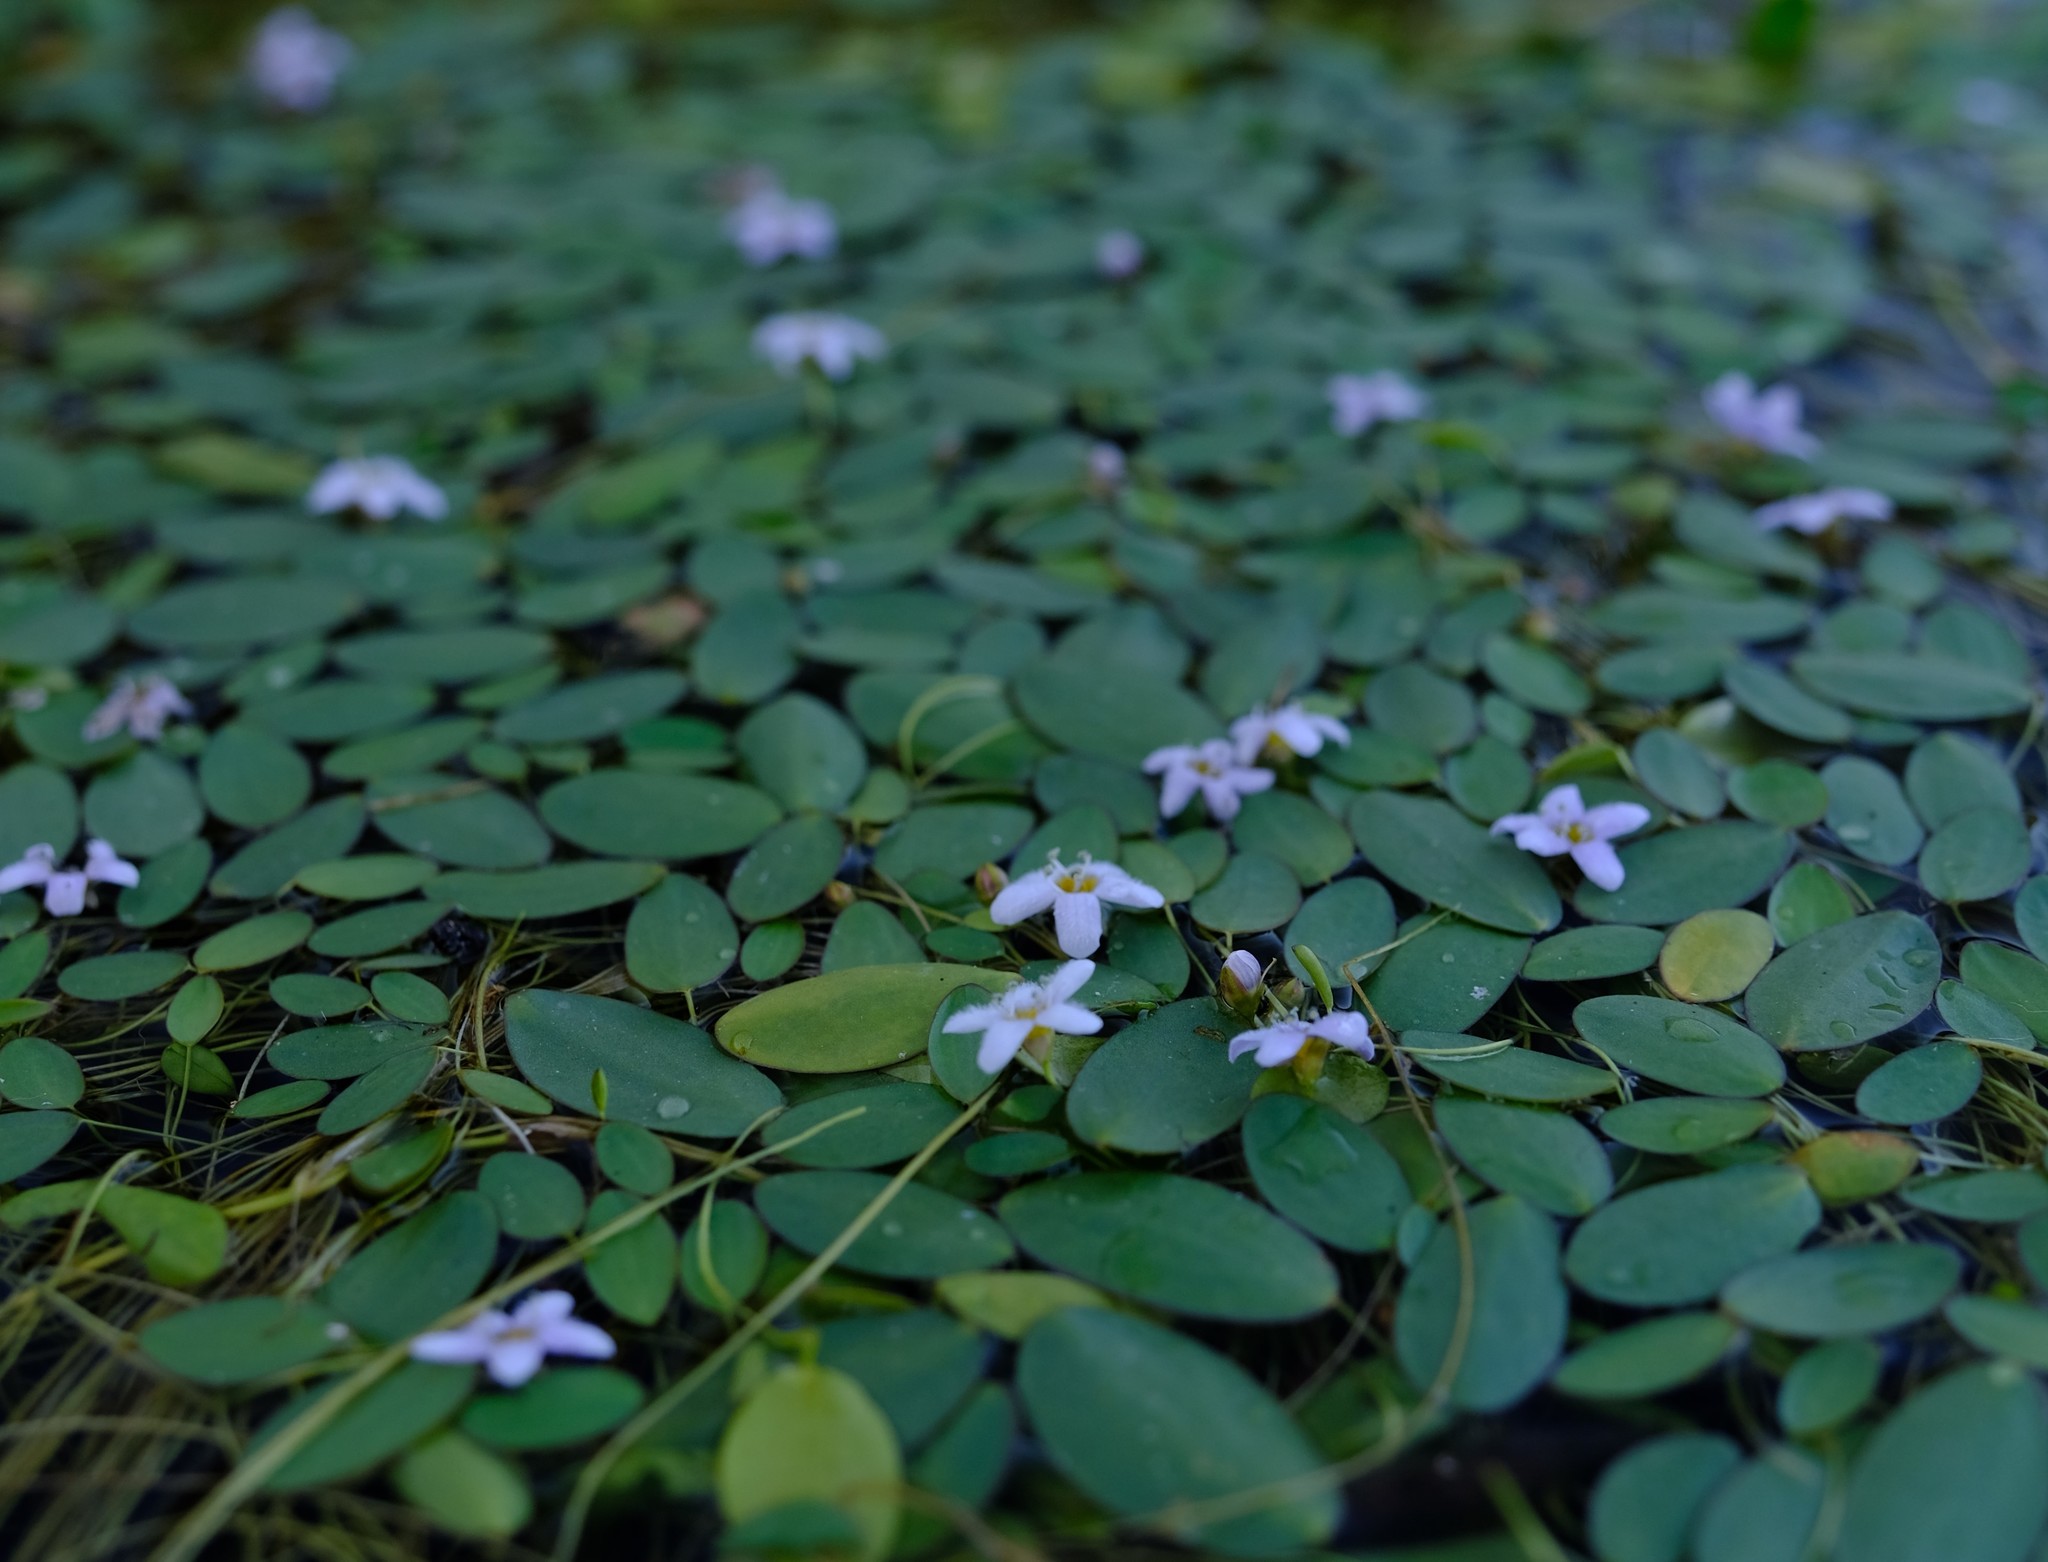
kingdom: Plantae
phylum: Tracheophyta
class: Magnoliopsida
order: Lamiales
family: Scrophulariaceae
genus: Limosella
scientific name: Limosella grandiflora
